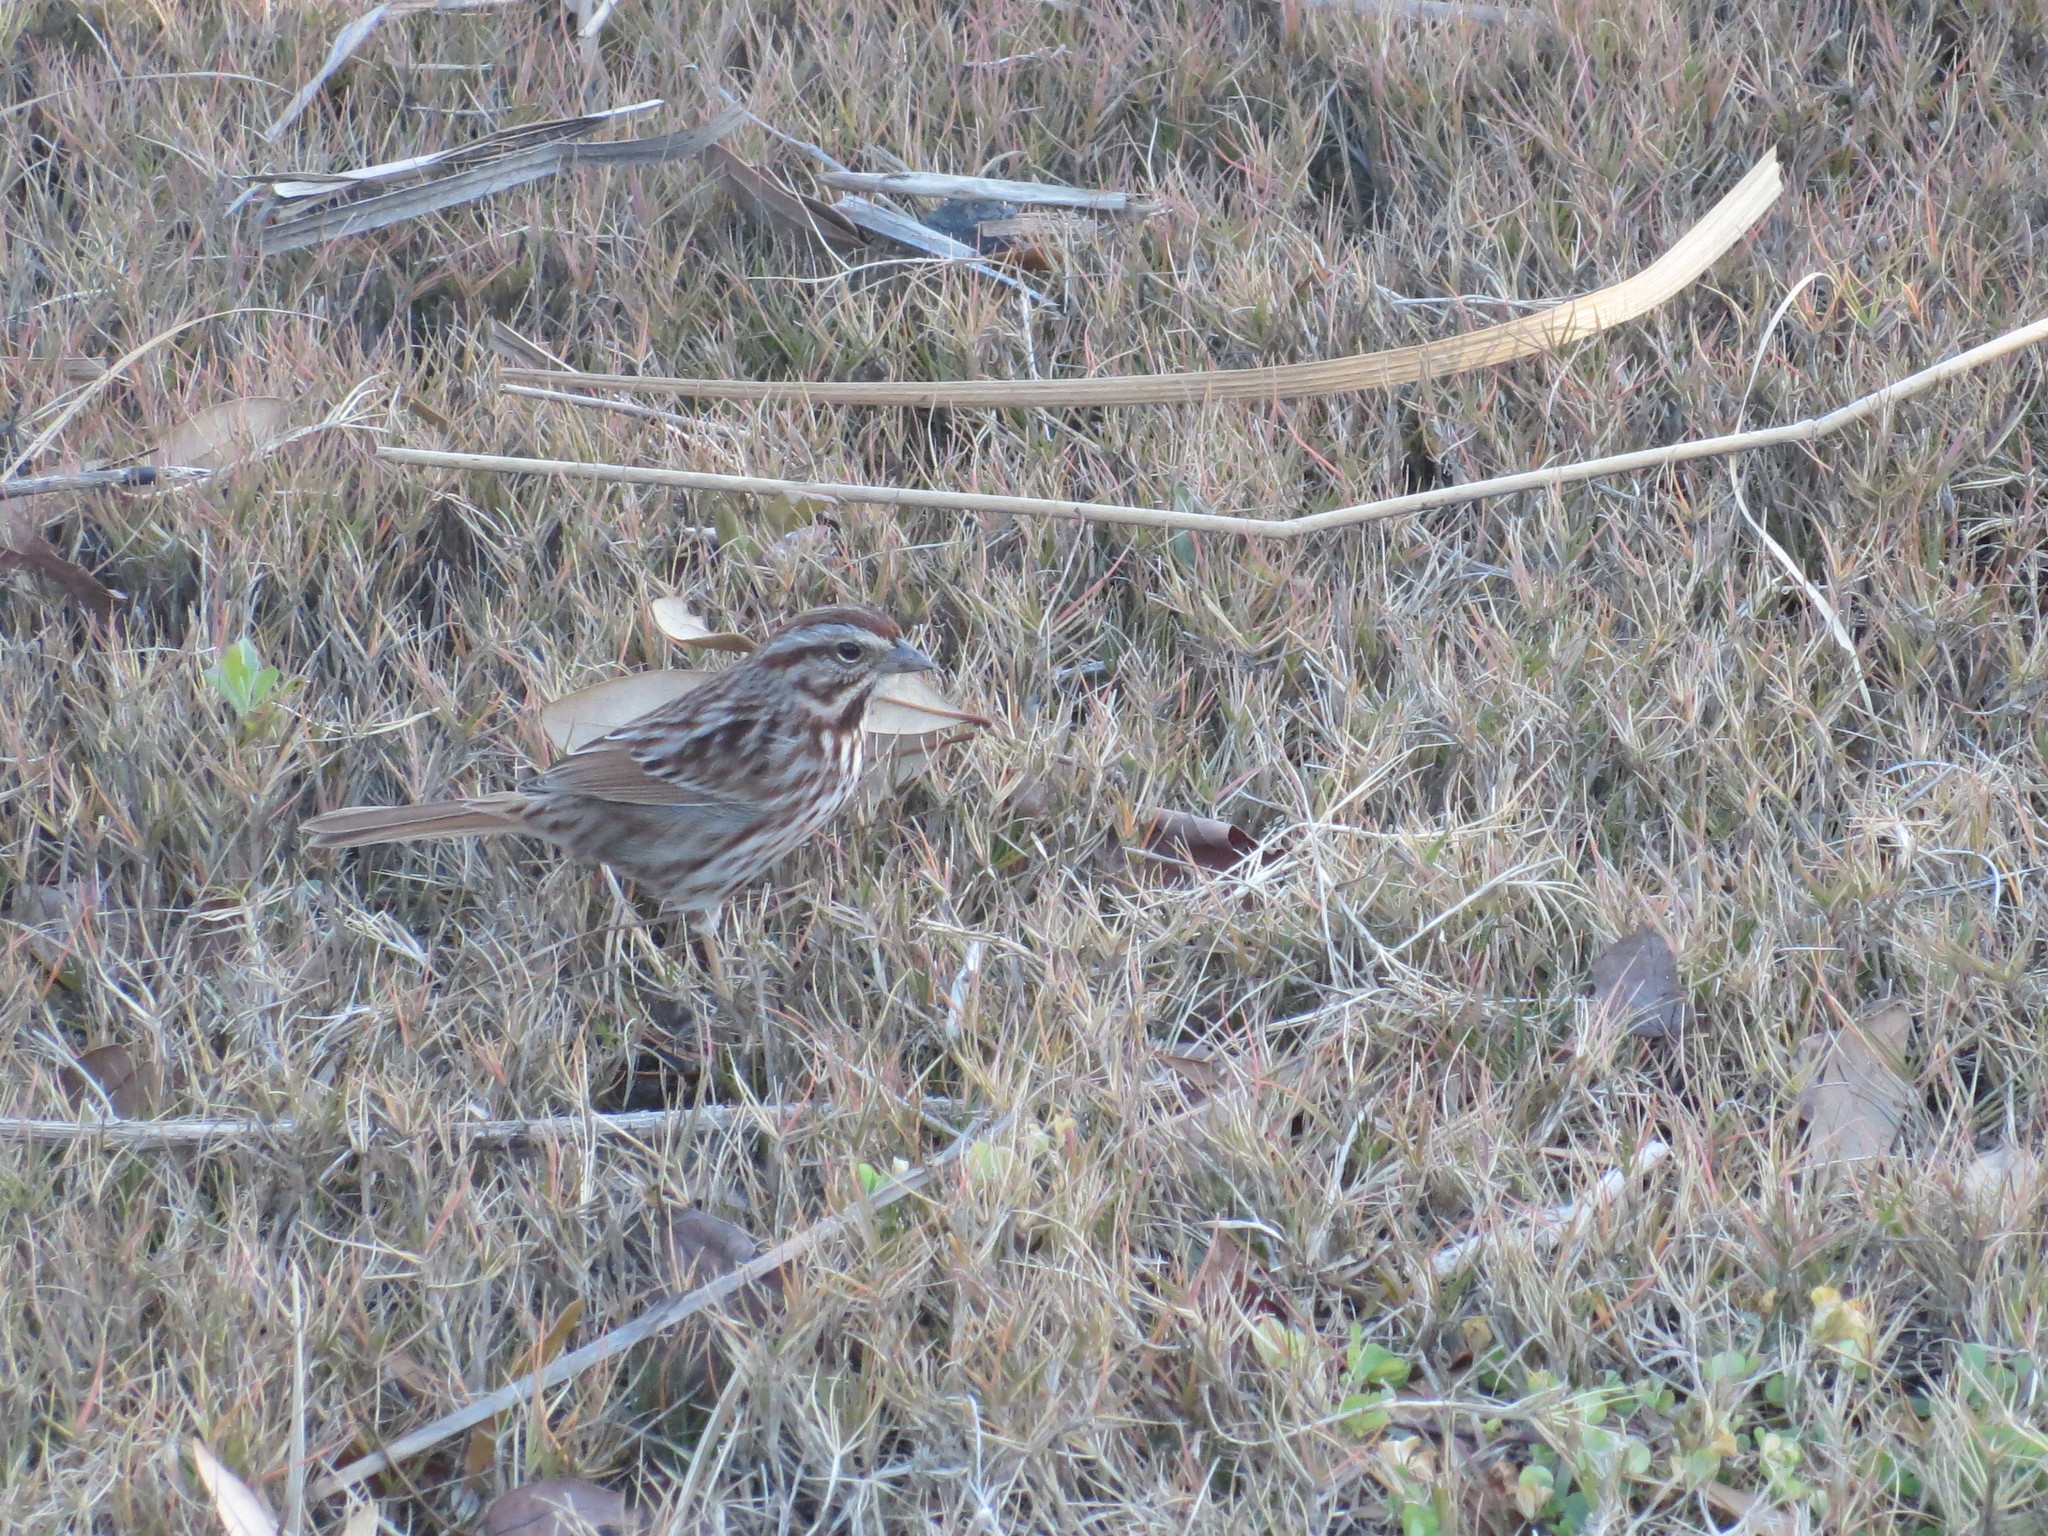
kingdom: Animalia
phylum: Chordata
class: Aves
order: Passeriformes
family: Passerellidae
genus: Melospiza
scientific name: Melospiza melodia
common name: Song sparrow
